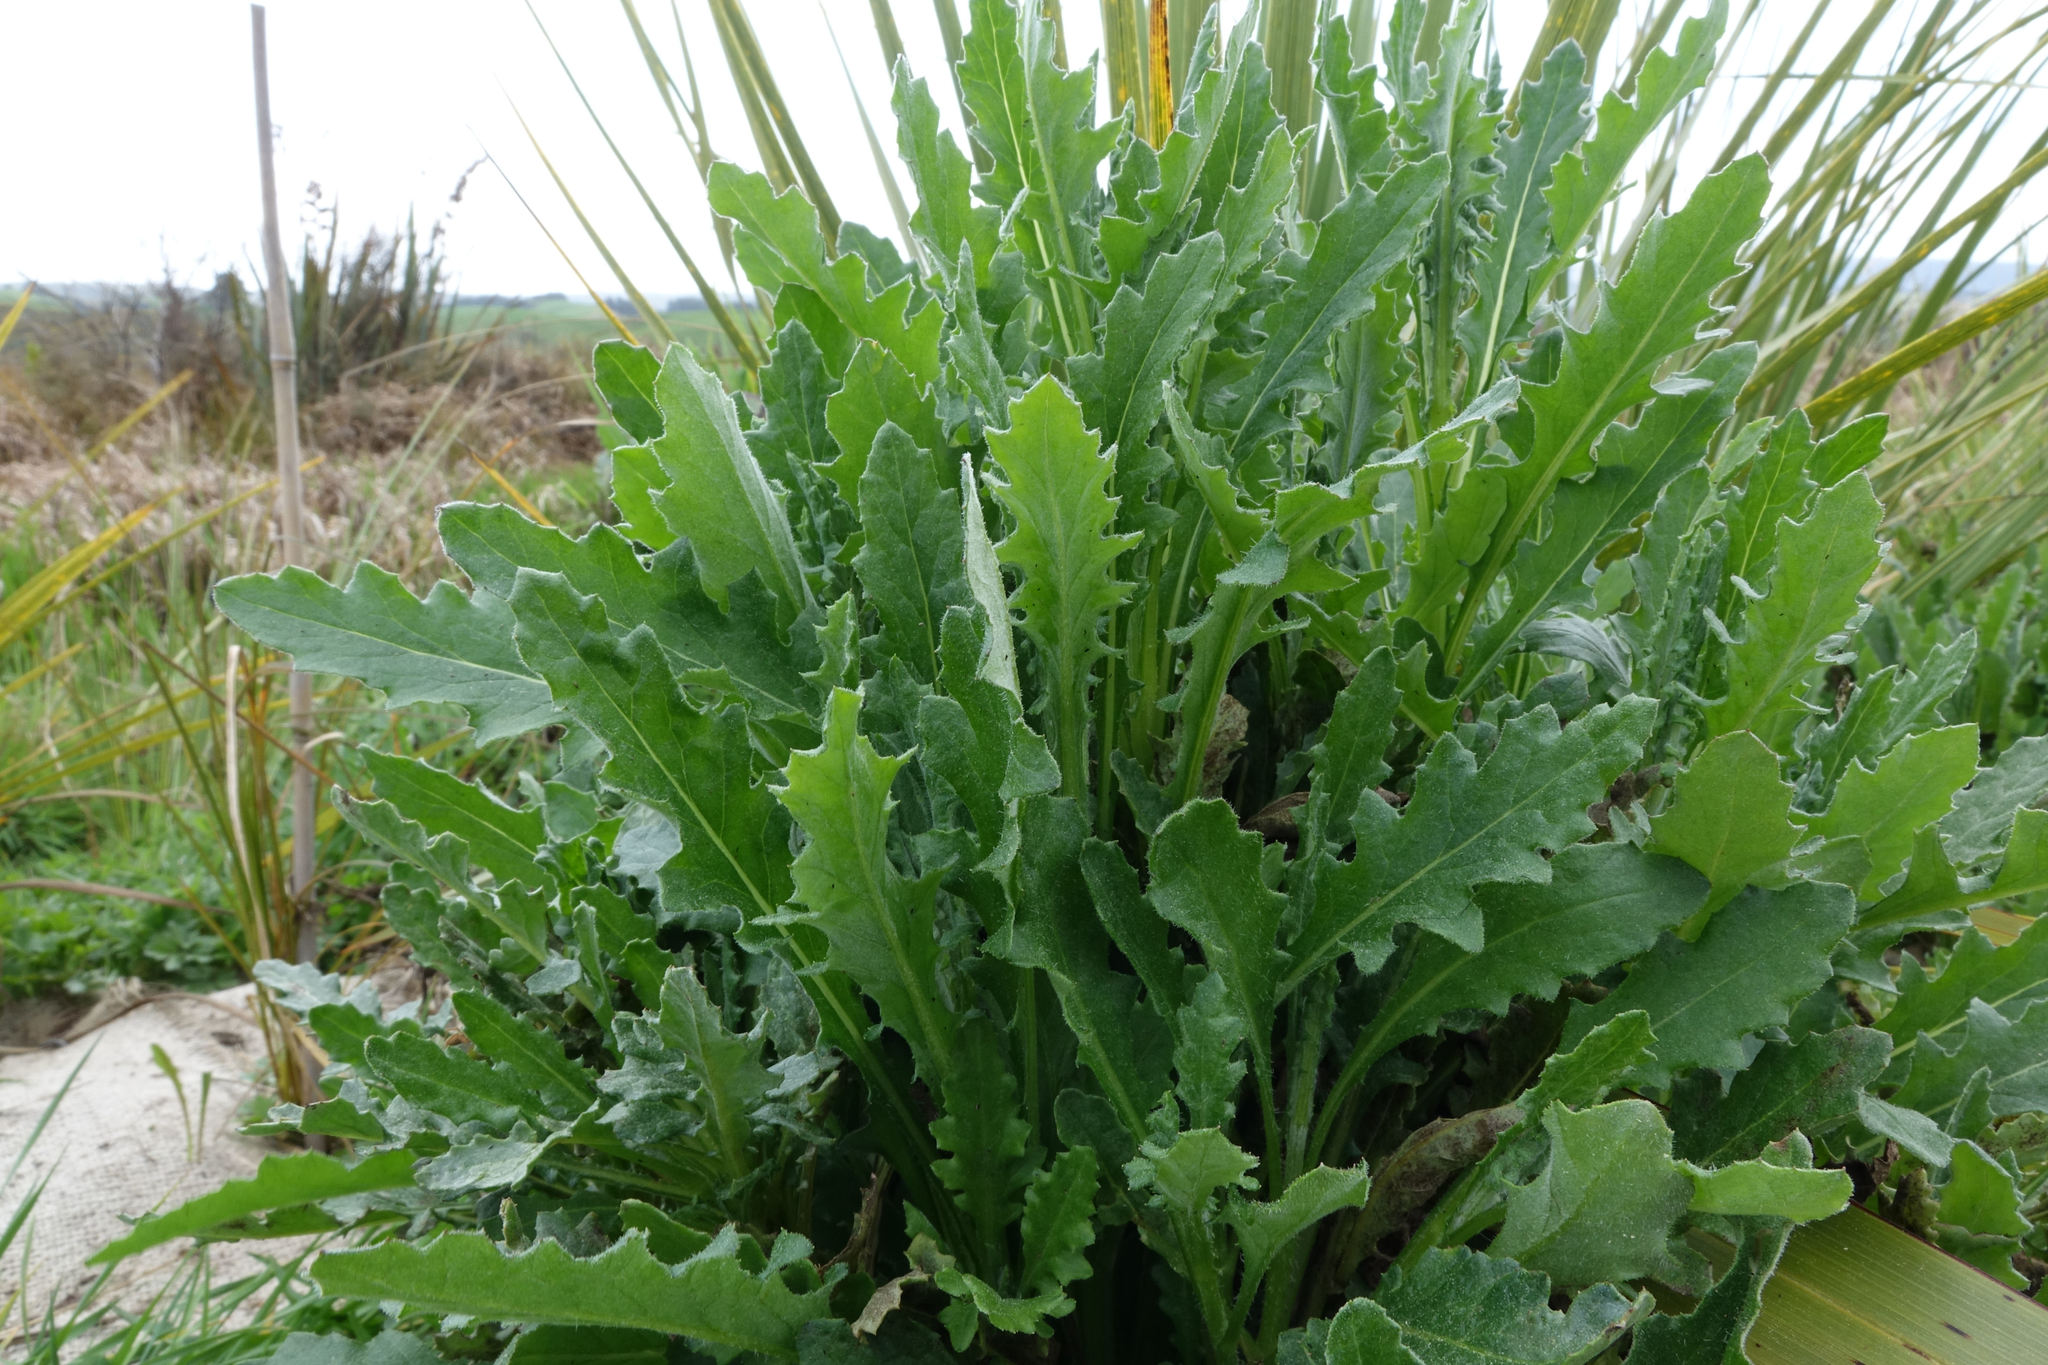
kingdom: Plantae
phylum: Tracheophyta
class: Magnoliopsida
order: Asterales
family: Asteraceae
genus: Senecio
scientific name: Senecio glomeratus
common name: Cutleaf burnweed
